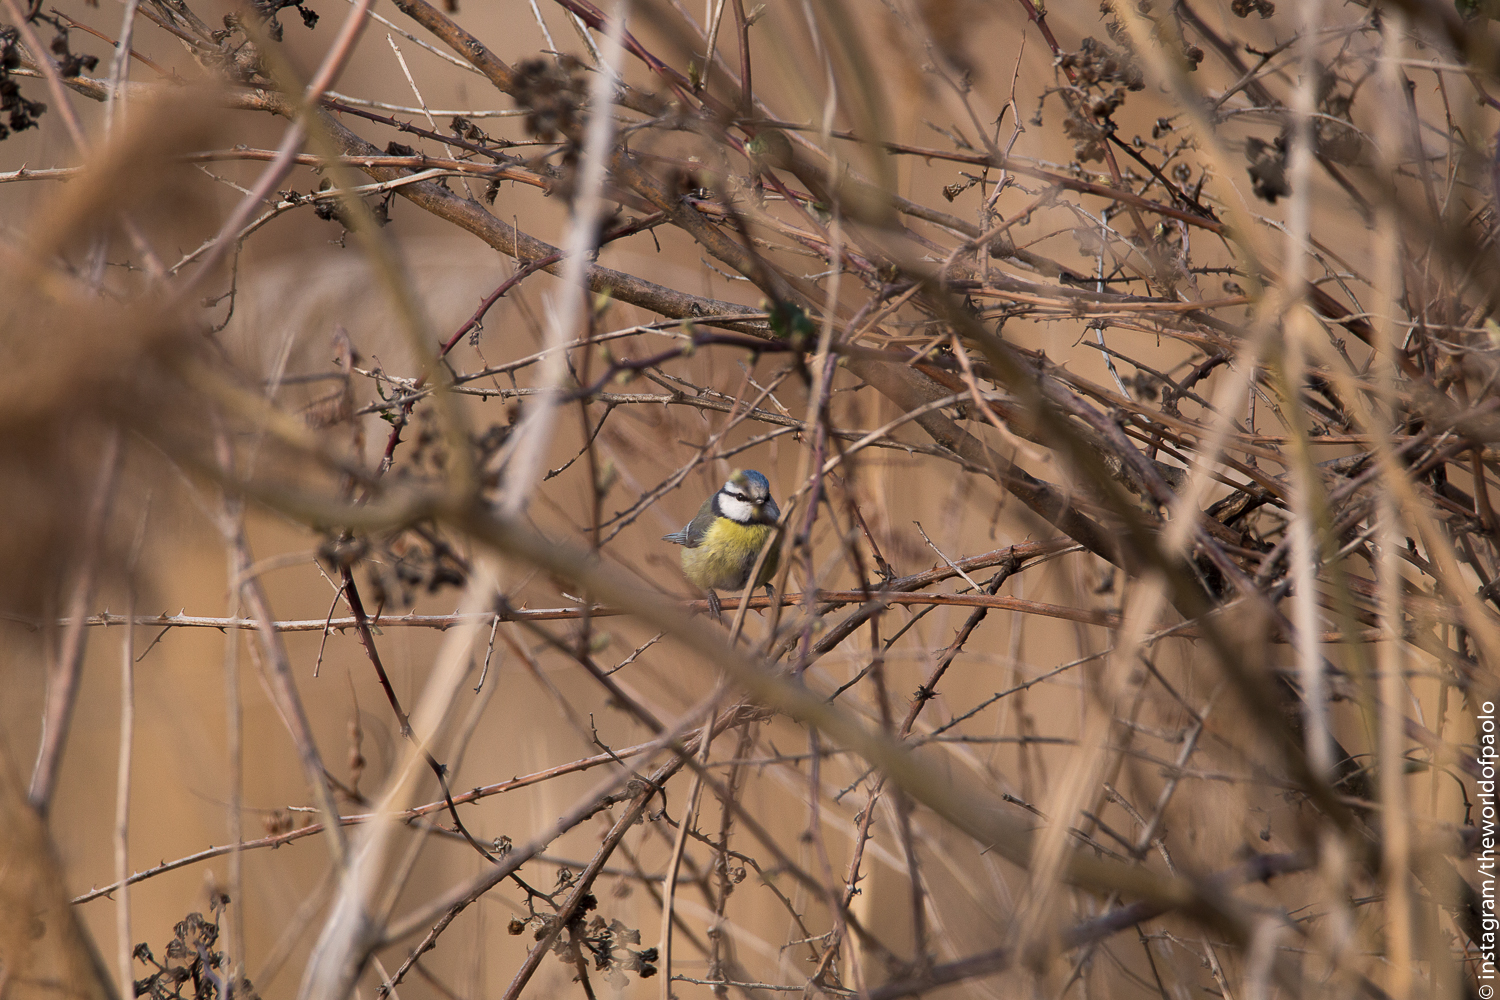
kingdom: Animalia
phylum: Chordata
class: Aves
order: Passeriformes
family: Paridae
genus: Cyanistes
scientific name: Cyanistes caeruleus
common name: Eurasian blue tit
